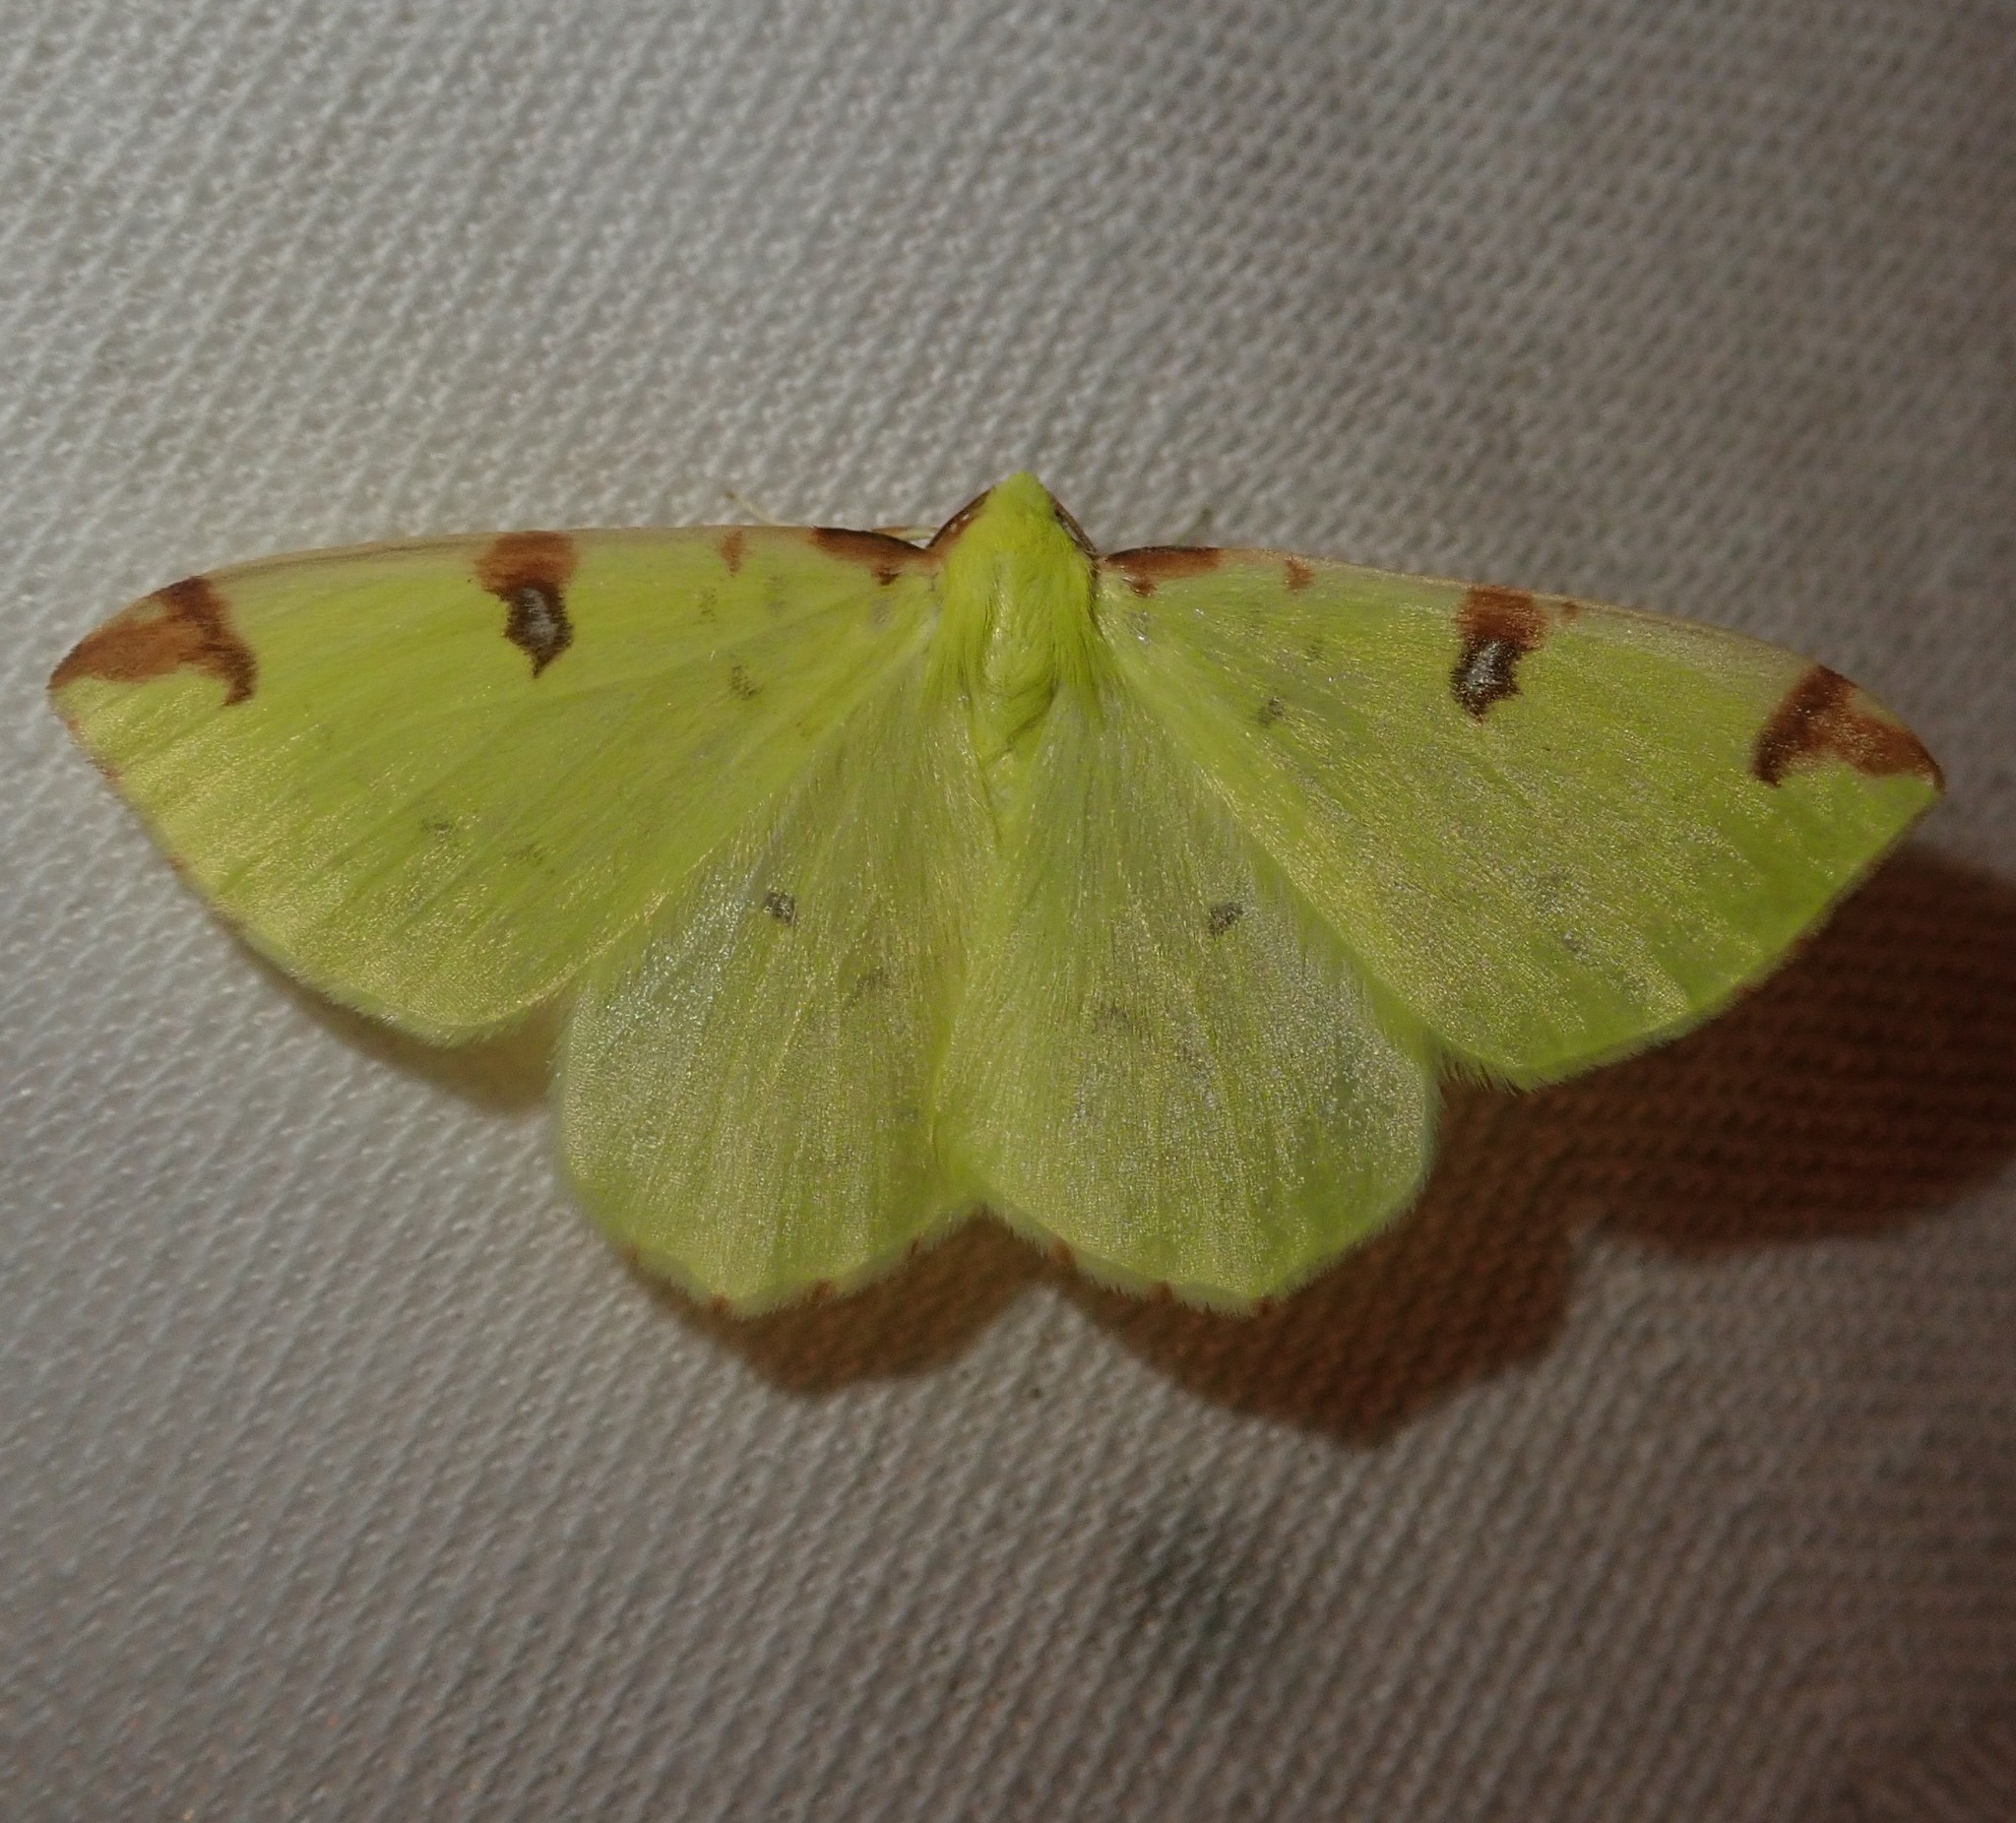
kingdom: Animalia
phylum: Arthropoda
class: Insecta
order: Lepidoptera
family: Geometridae
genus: Opisthograptis
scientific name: Opisthograptis luteolata
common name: Brimstone moth
